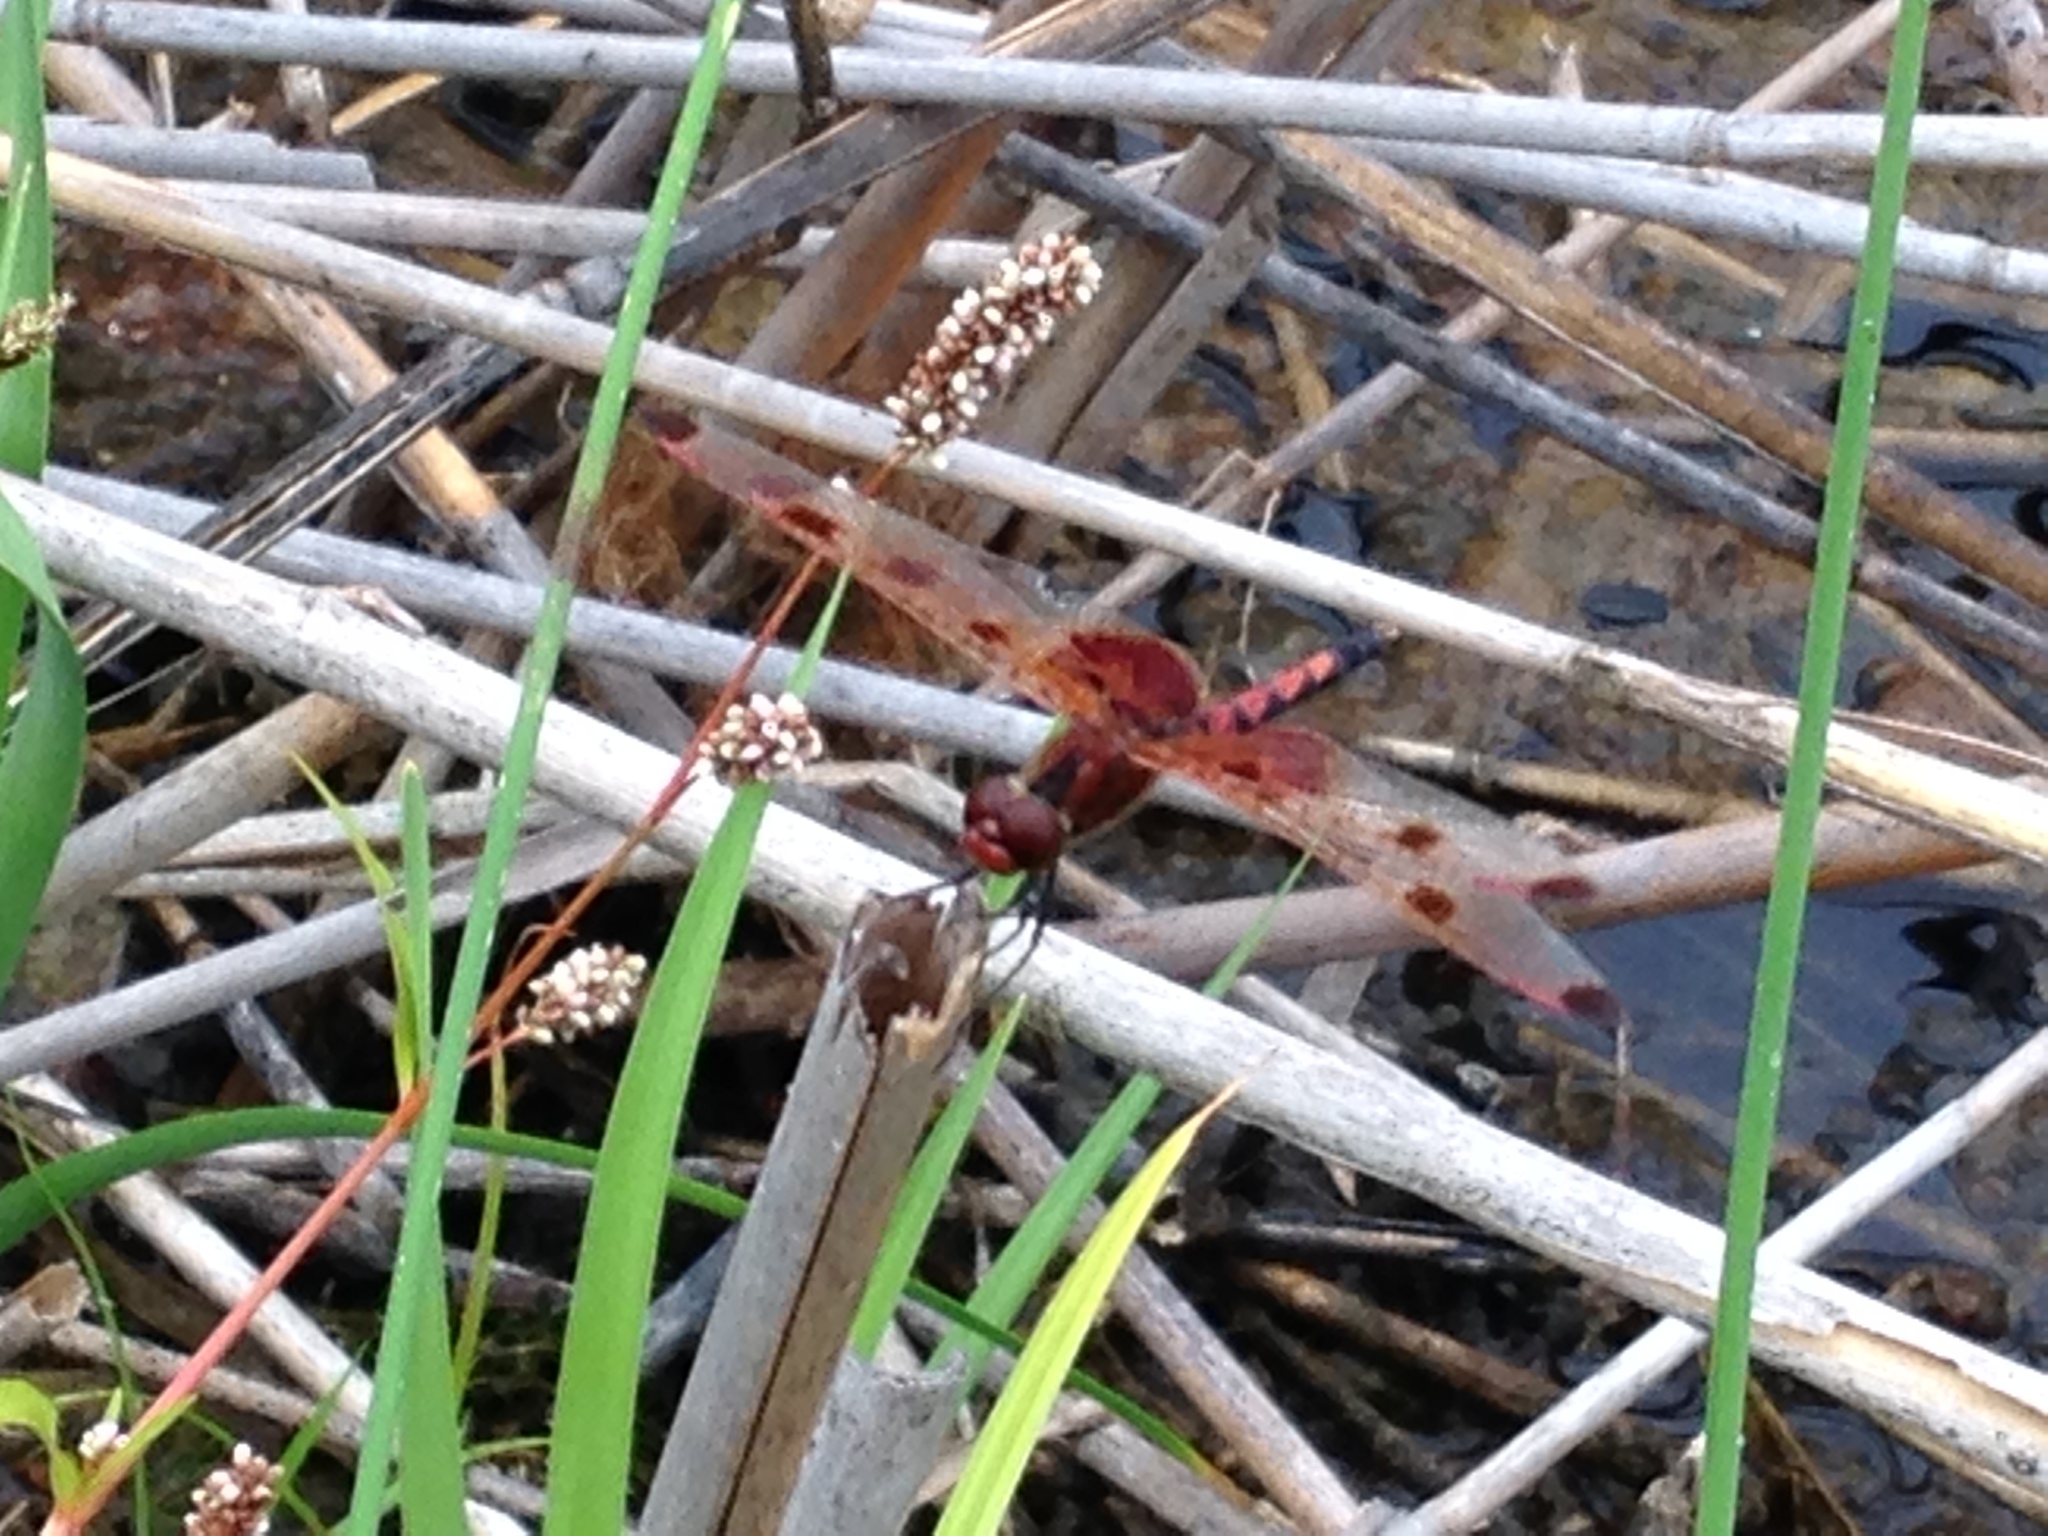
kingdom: Animalia
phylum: Arthropoda
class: Insecta
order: Odonata
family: Libellulidae
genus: Celithemis
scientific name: Celithemis elisa
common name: Calico pennant
